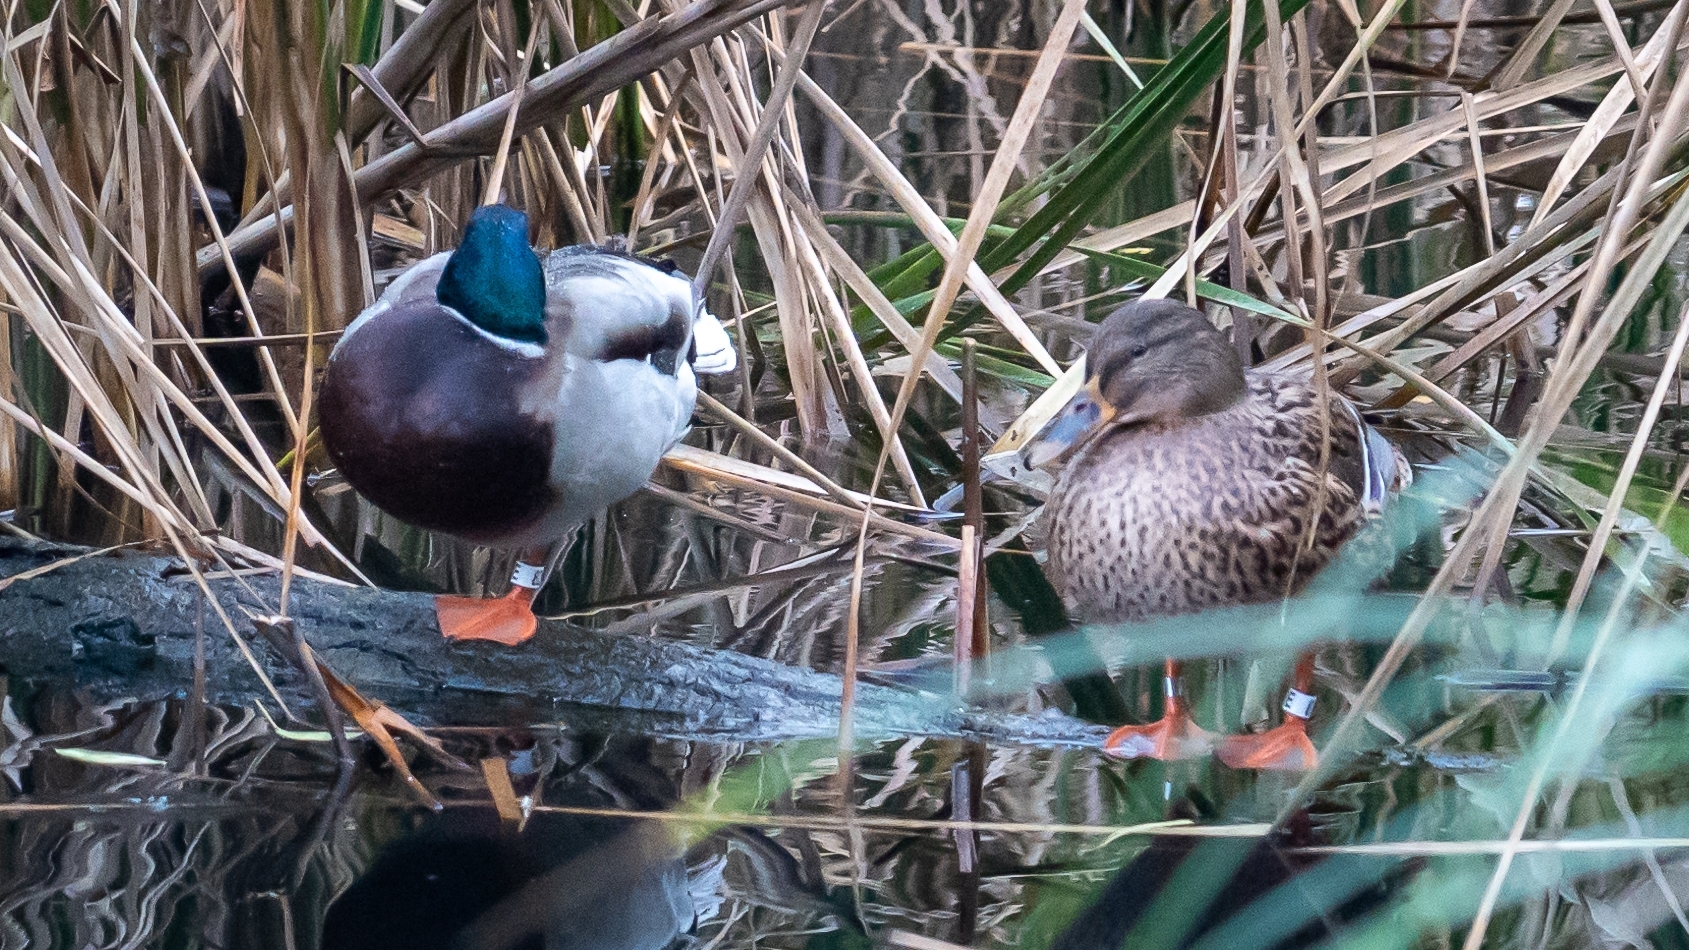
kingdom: Animalia
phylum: Chordata
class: Aves
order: Anseriformes
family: Anatidae
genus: Anas
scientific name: Anas platyrhynchos
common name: Mallard
